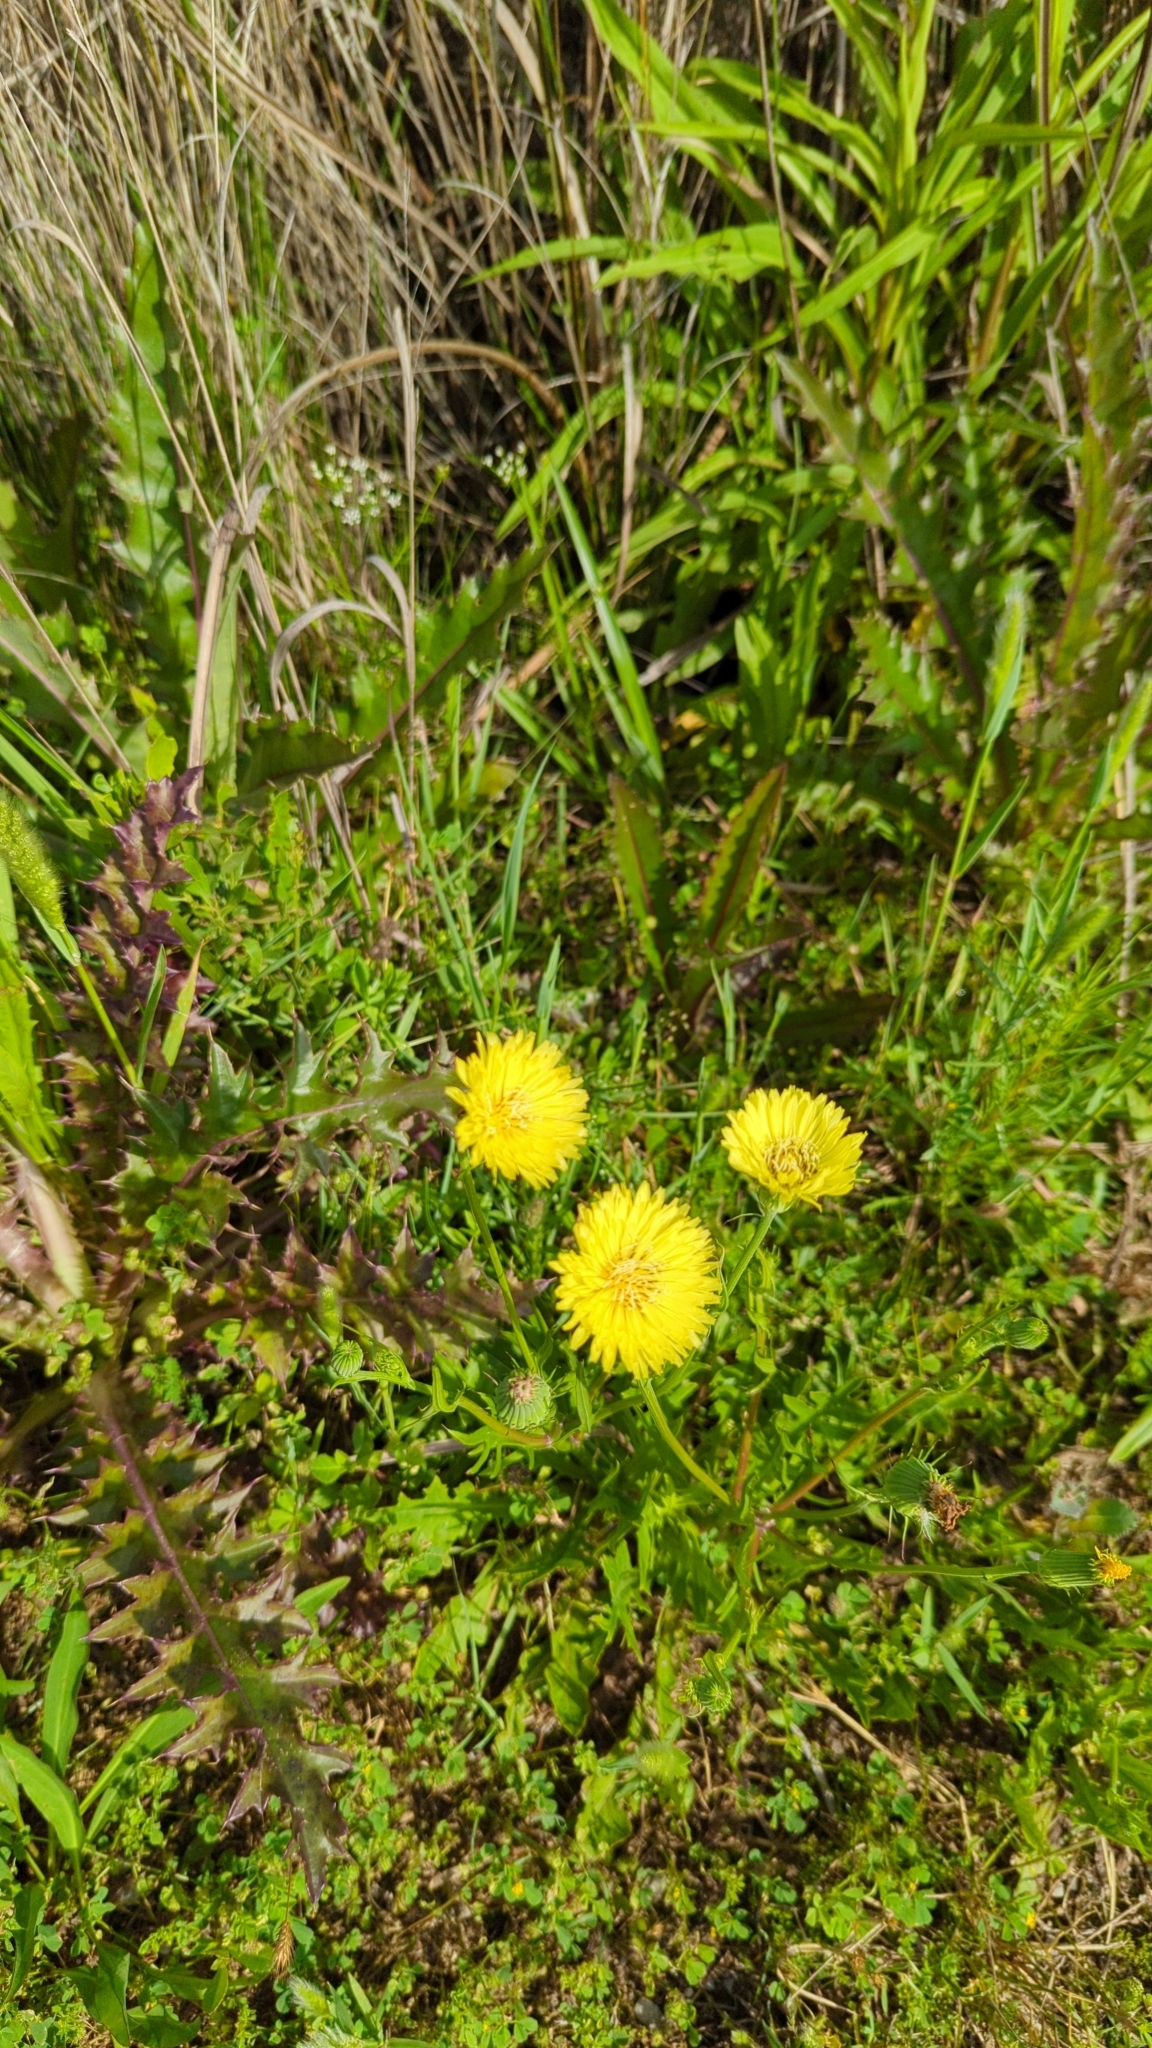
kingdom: Plantae
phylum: Tracheophyta
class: Magnoliopsida
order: Asterales
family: Asteraceae
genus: Taraxacum
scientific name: Taraxacum officinale
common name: Common dandelion
